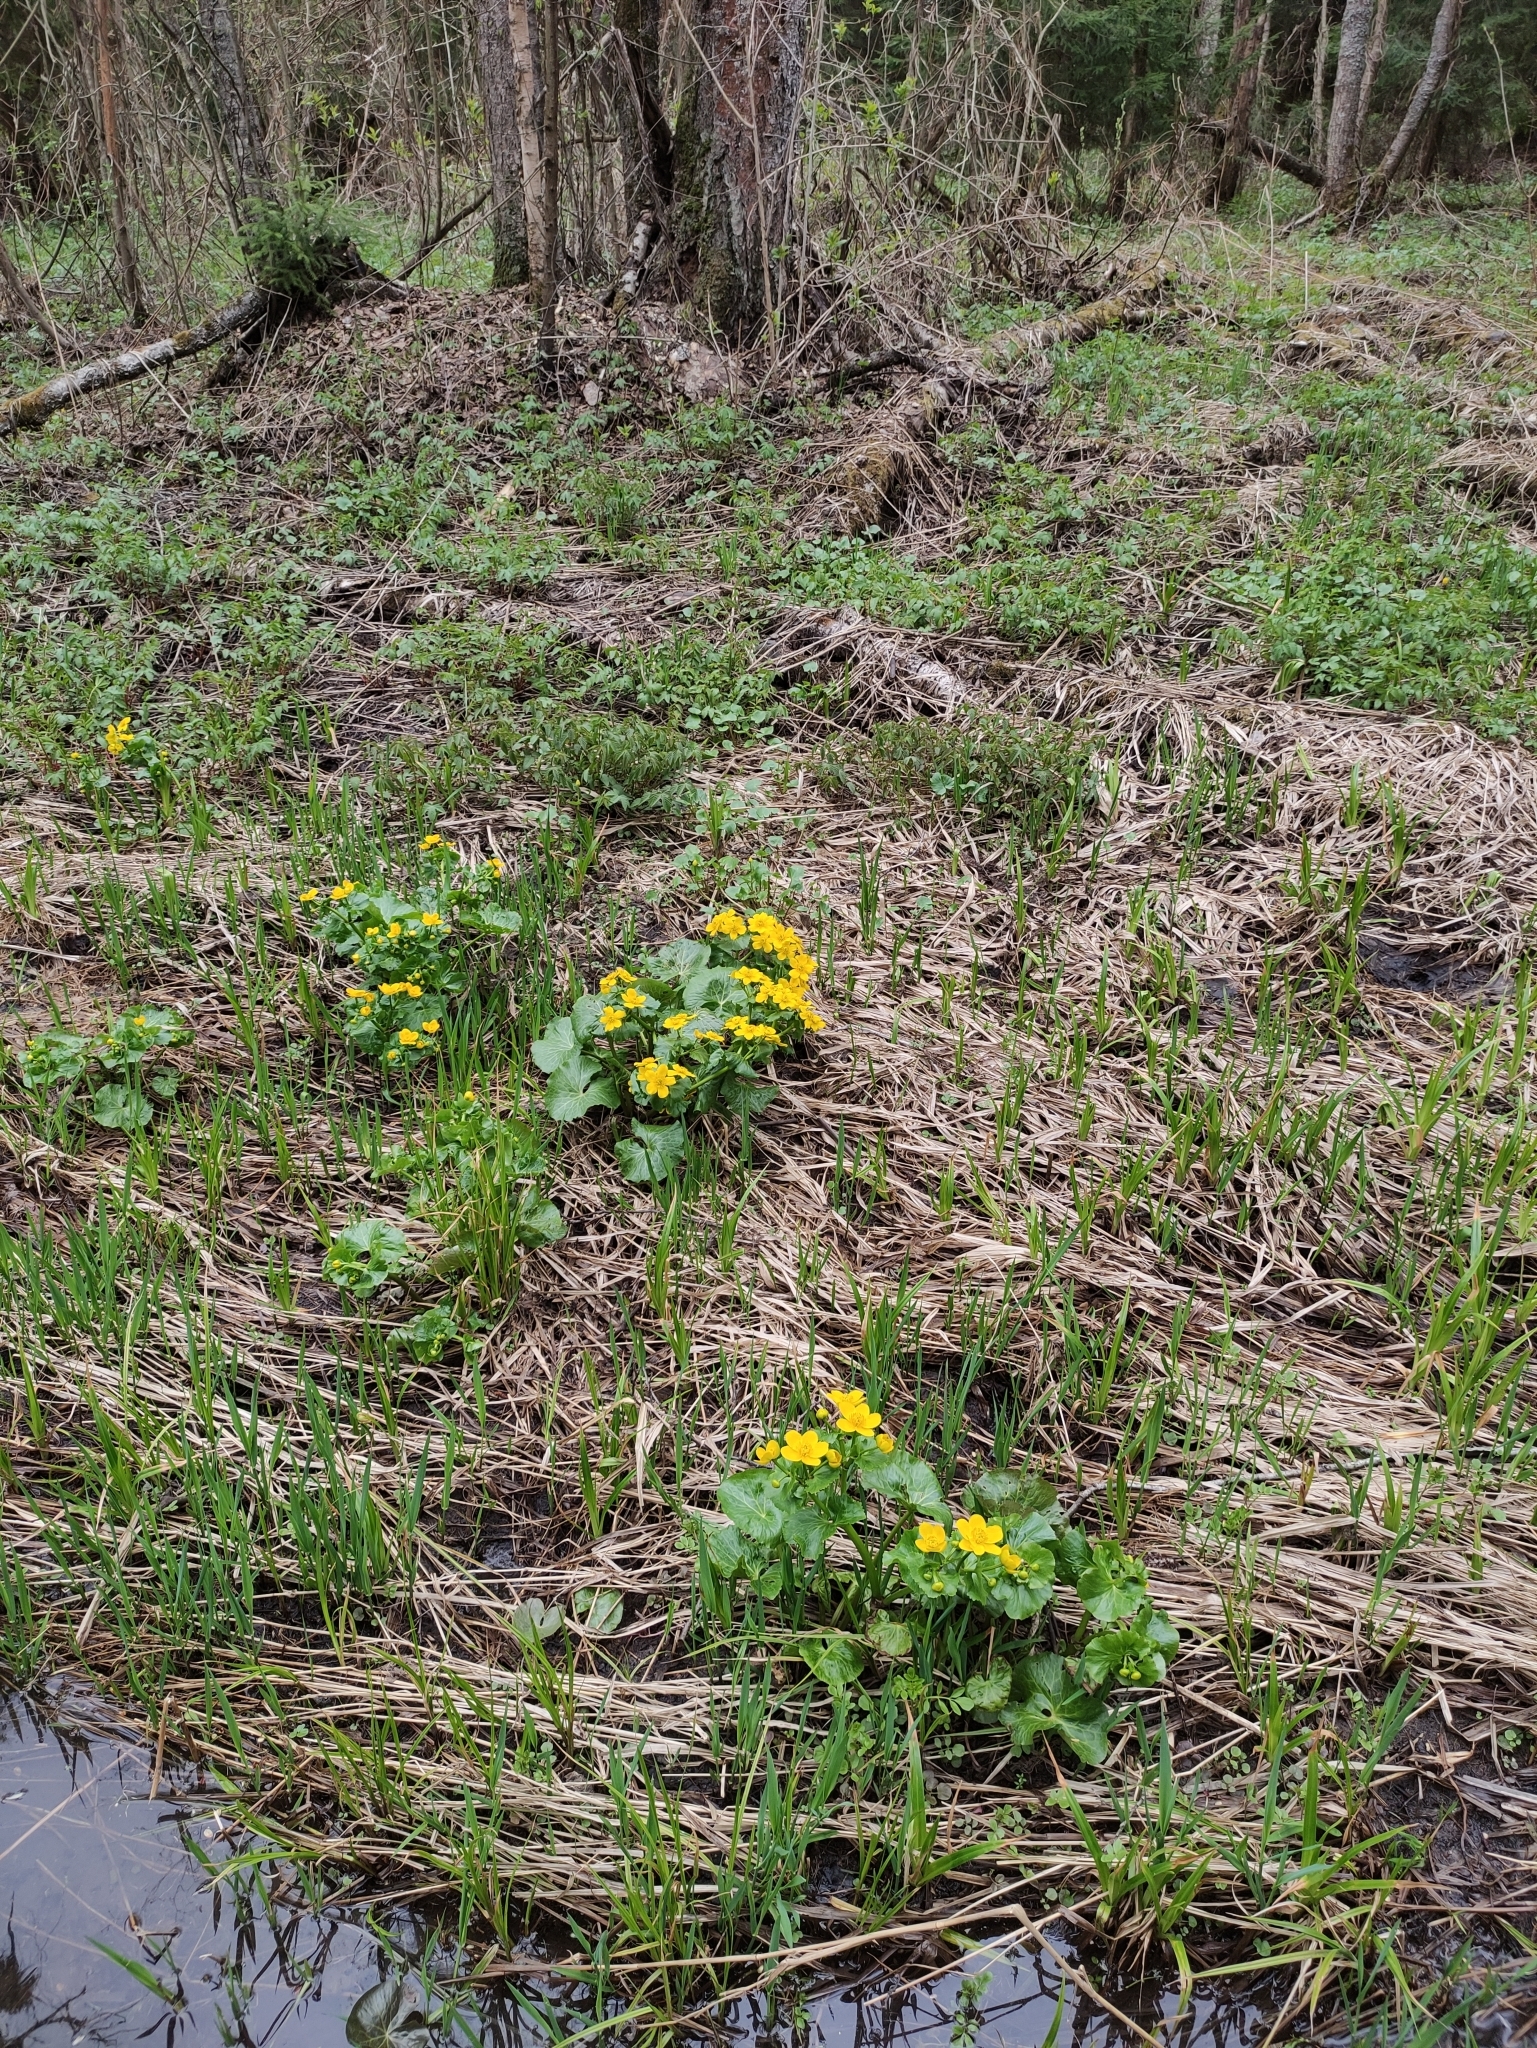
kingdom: Plantae
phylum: Tracheophyta
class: Magnoliopsida
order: Ranunculales
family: Ranunculaceae
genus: Caltha
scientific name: Caltha palustris
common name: Marsh marigold
